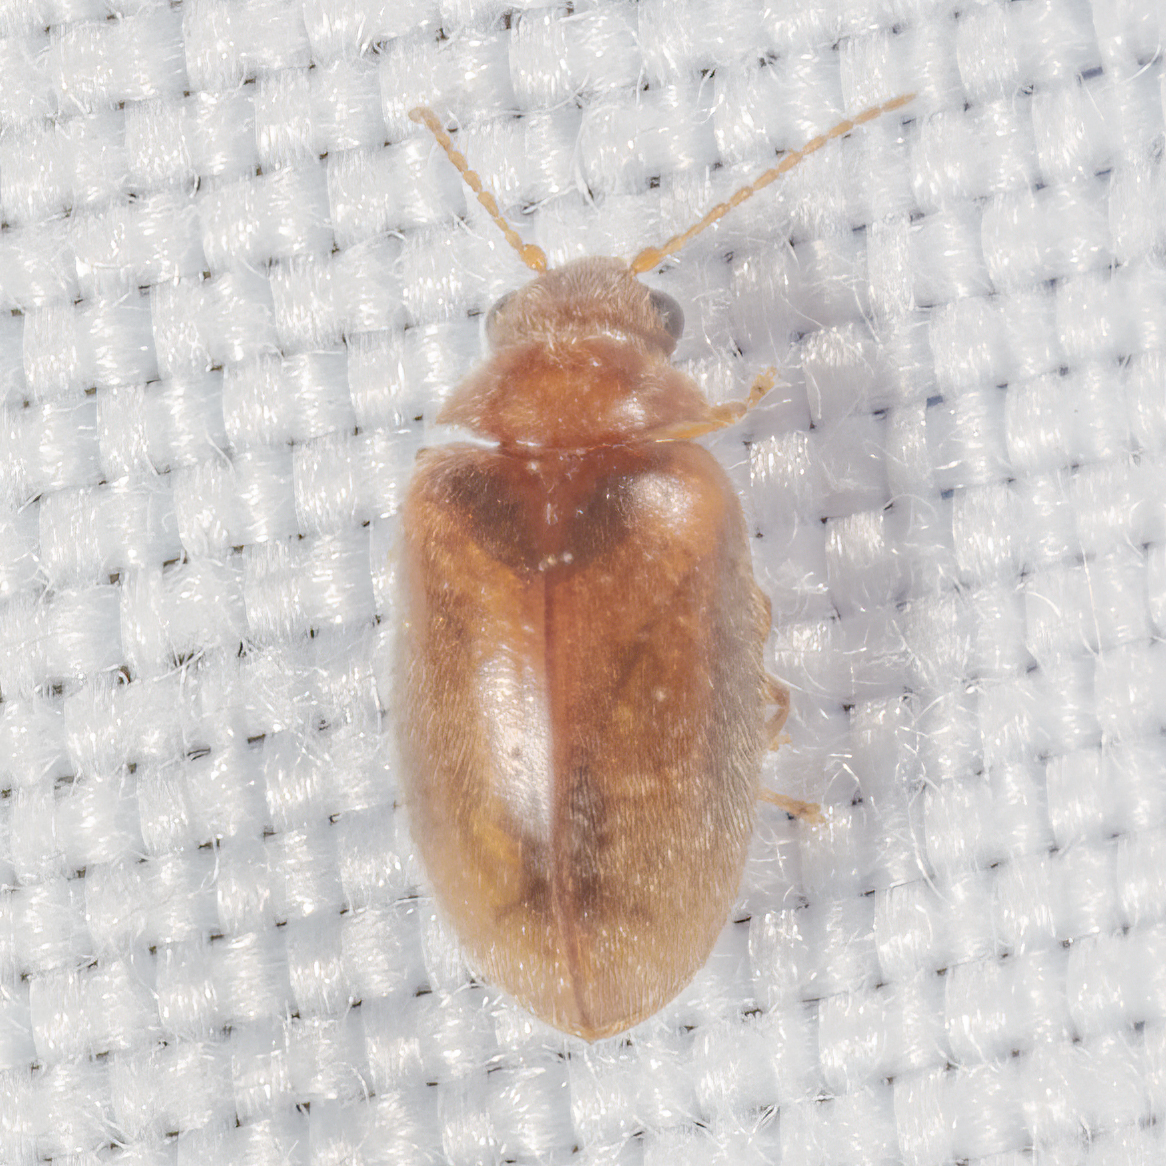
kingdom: Animalia
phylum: Arthropoda
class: Insecta
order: Coleoptera
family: Scirtidae
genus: Contacyphon
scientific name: Contacyphon
